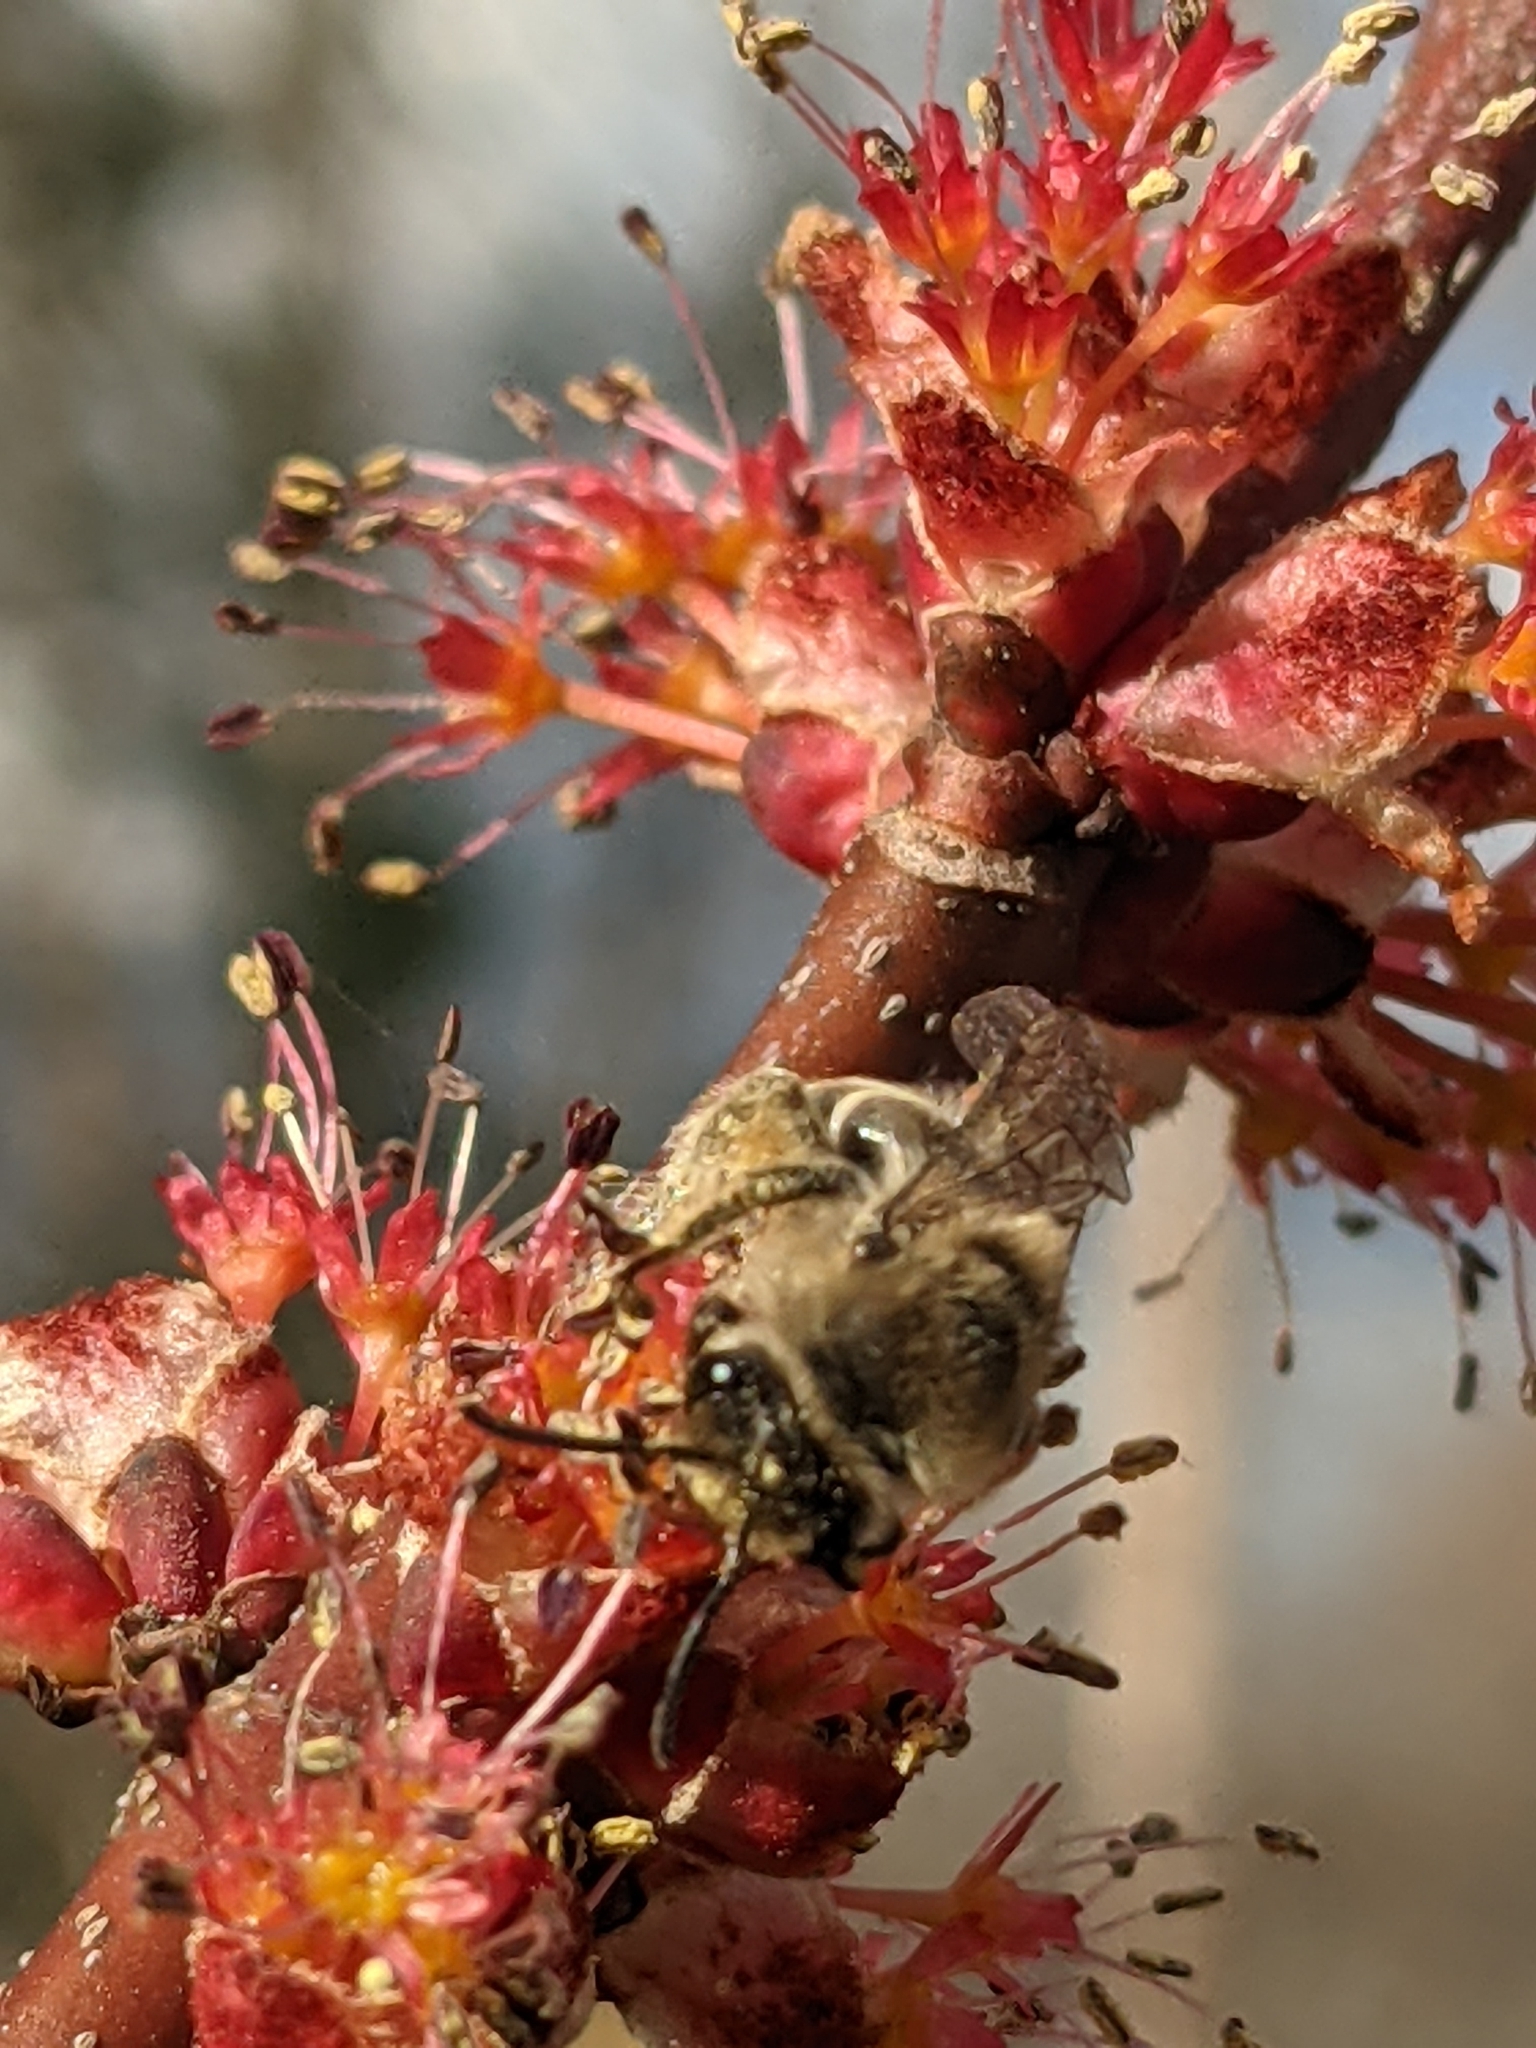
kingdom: Animalia
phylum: Arthropoda
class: Insecta
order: Hymenoptera
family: Colletidae
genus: Colletes
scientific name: Colletes inaequalis
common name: Unequal cellophane bee
